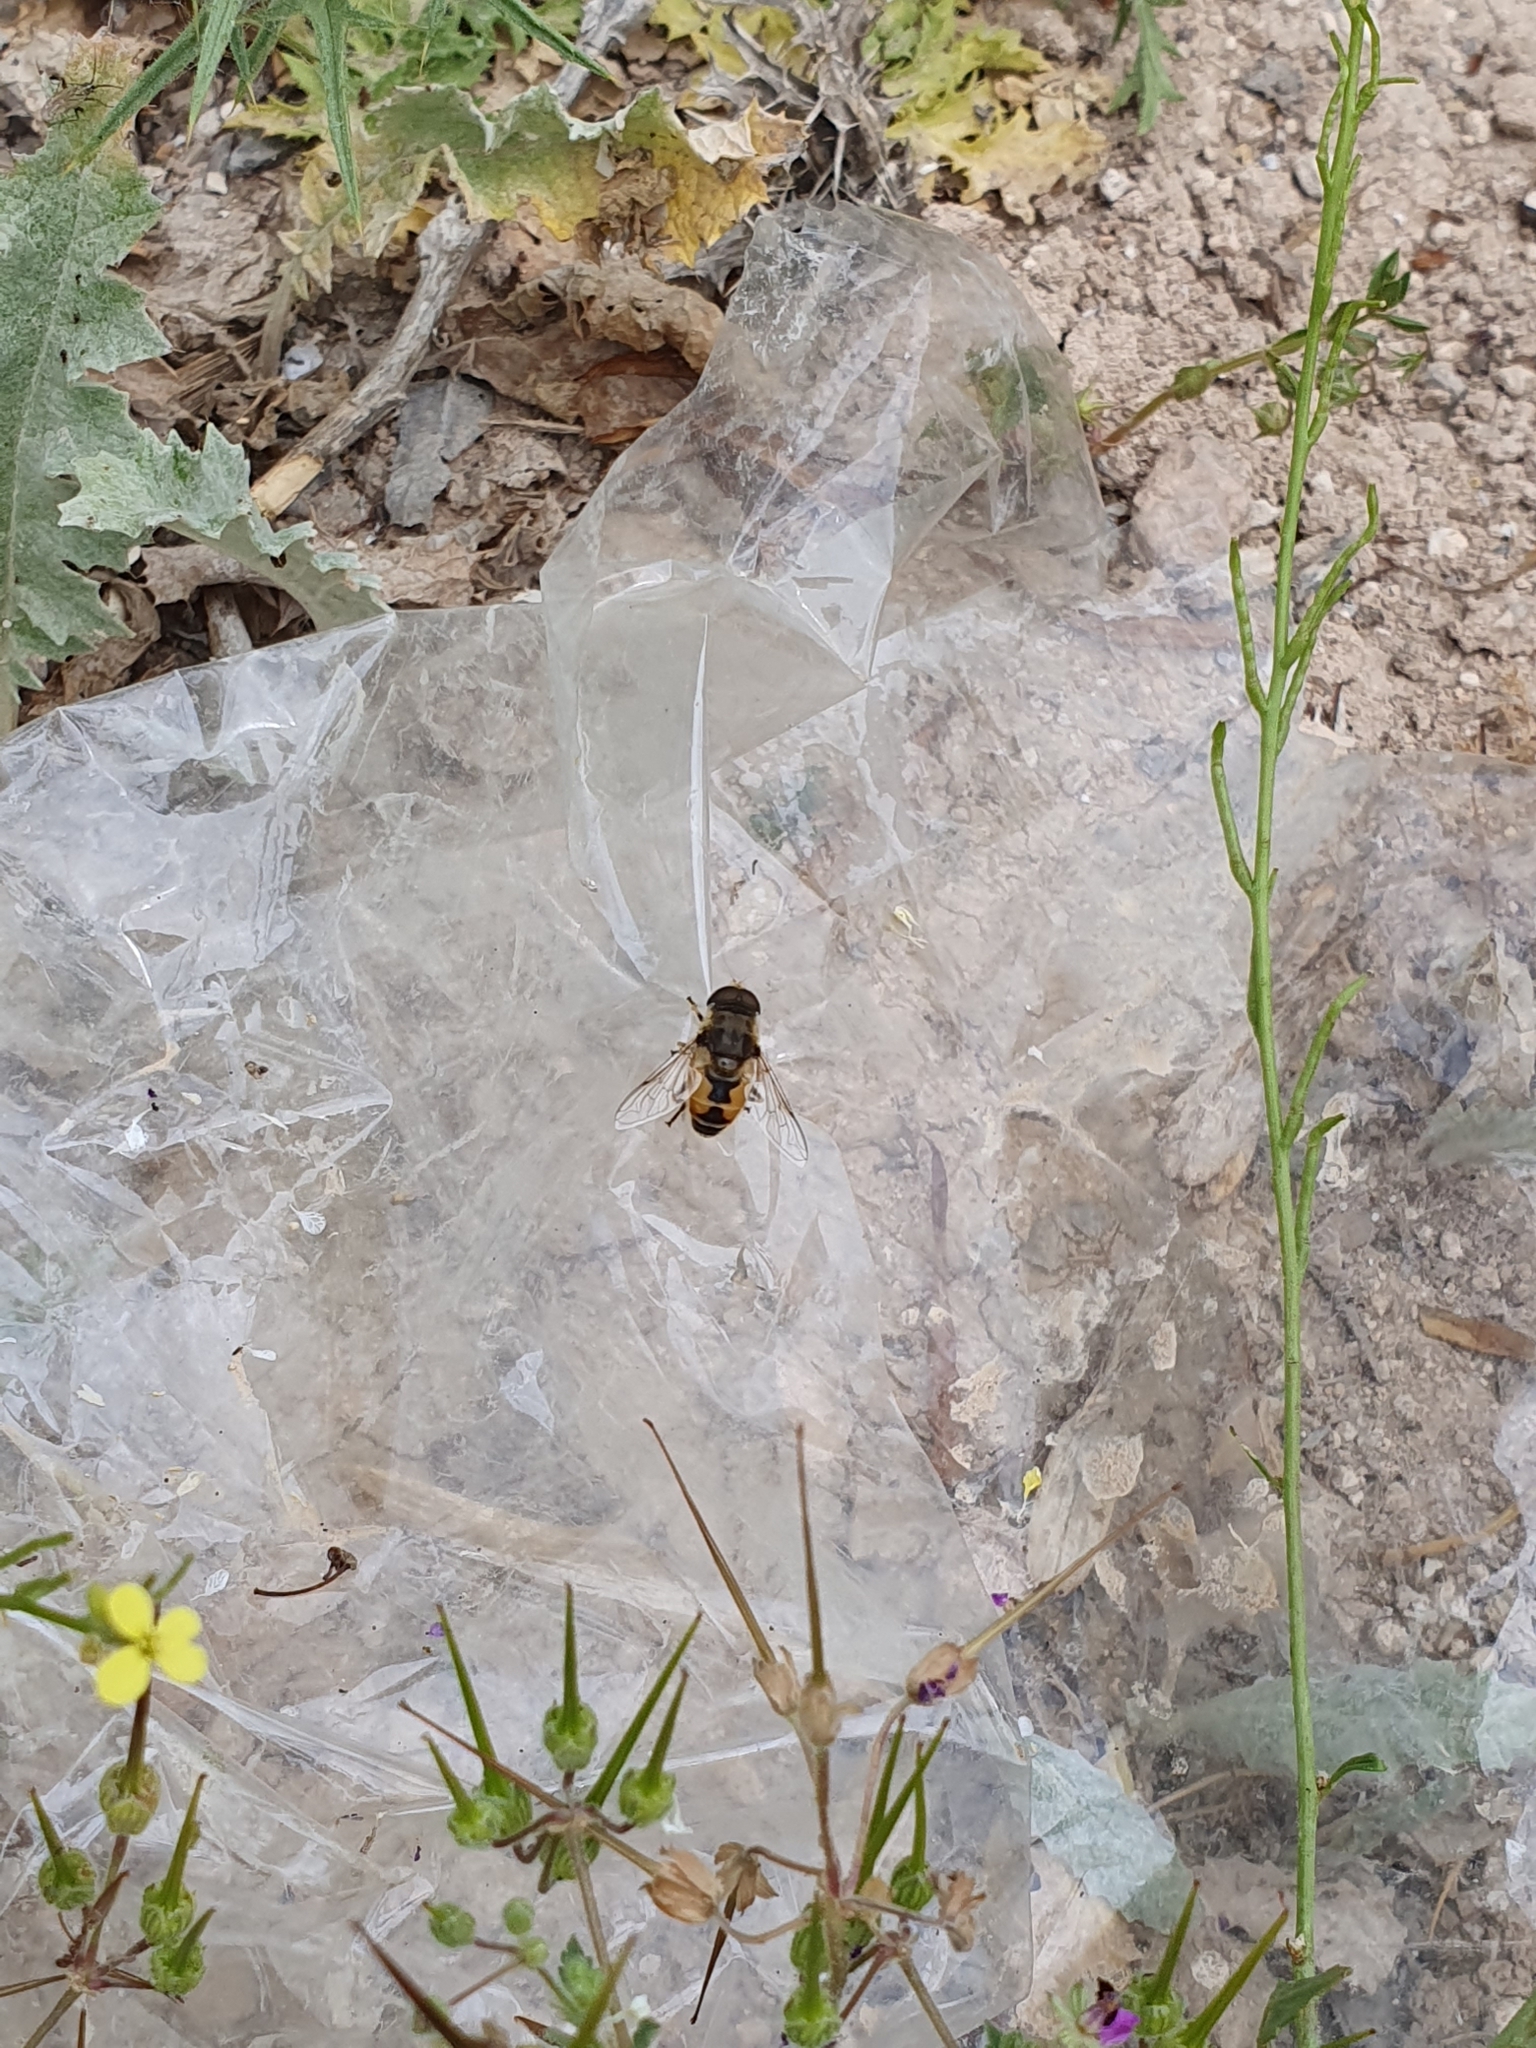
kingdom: Animalia
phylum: Arthropoda
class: Insecta
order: Diptera
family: Syrphidae
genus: Eristalis
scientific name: Eristalis arbustorum
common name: Hover fly
